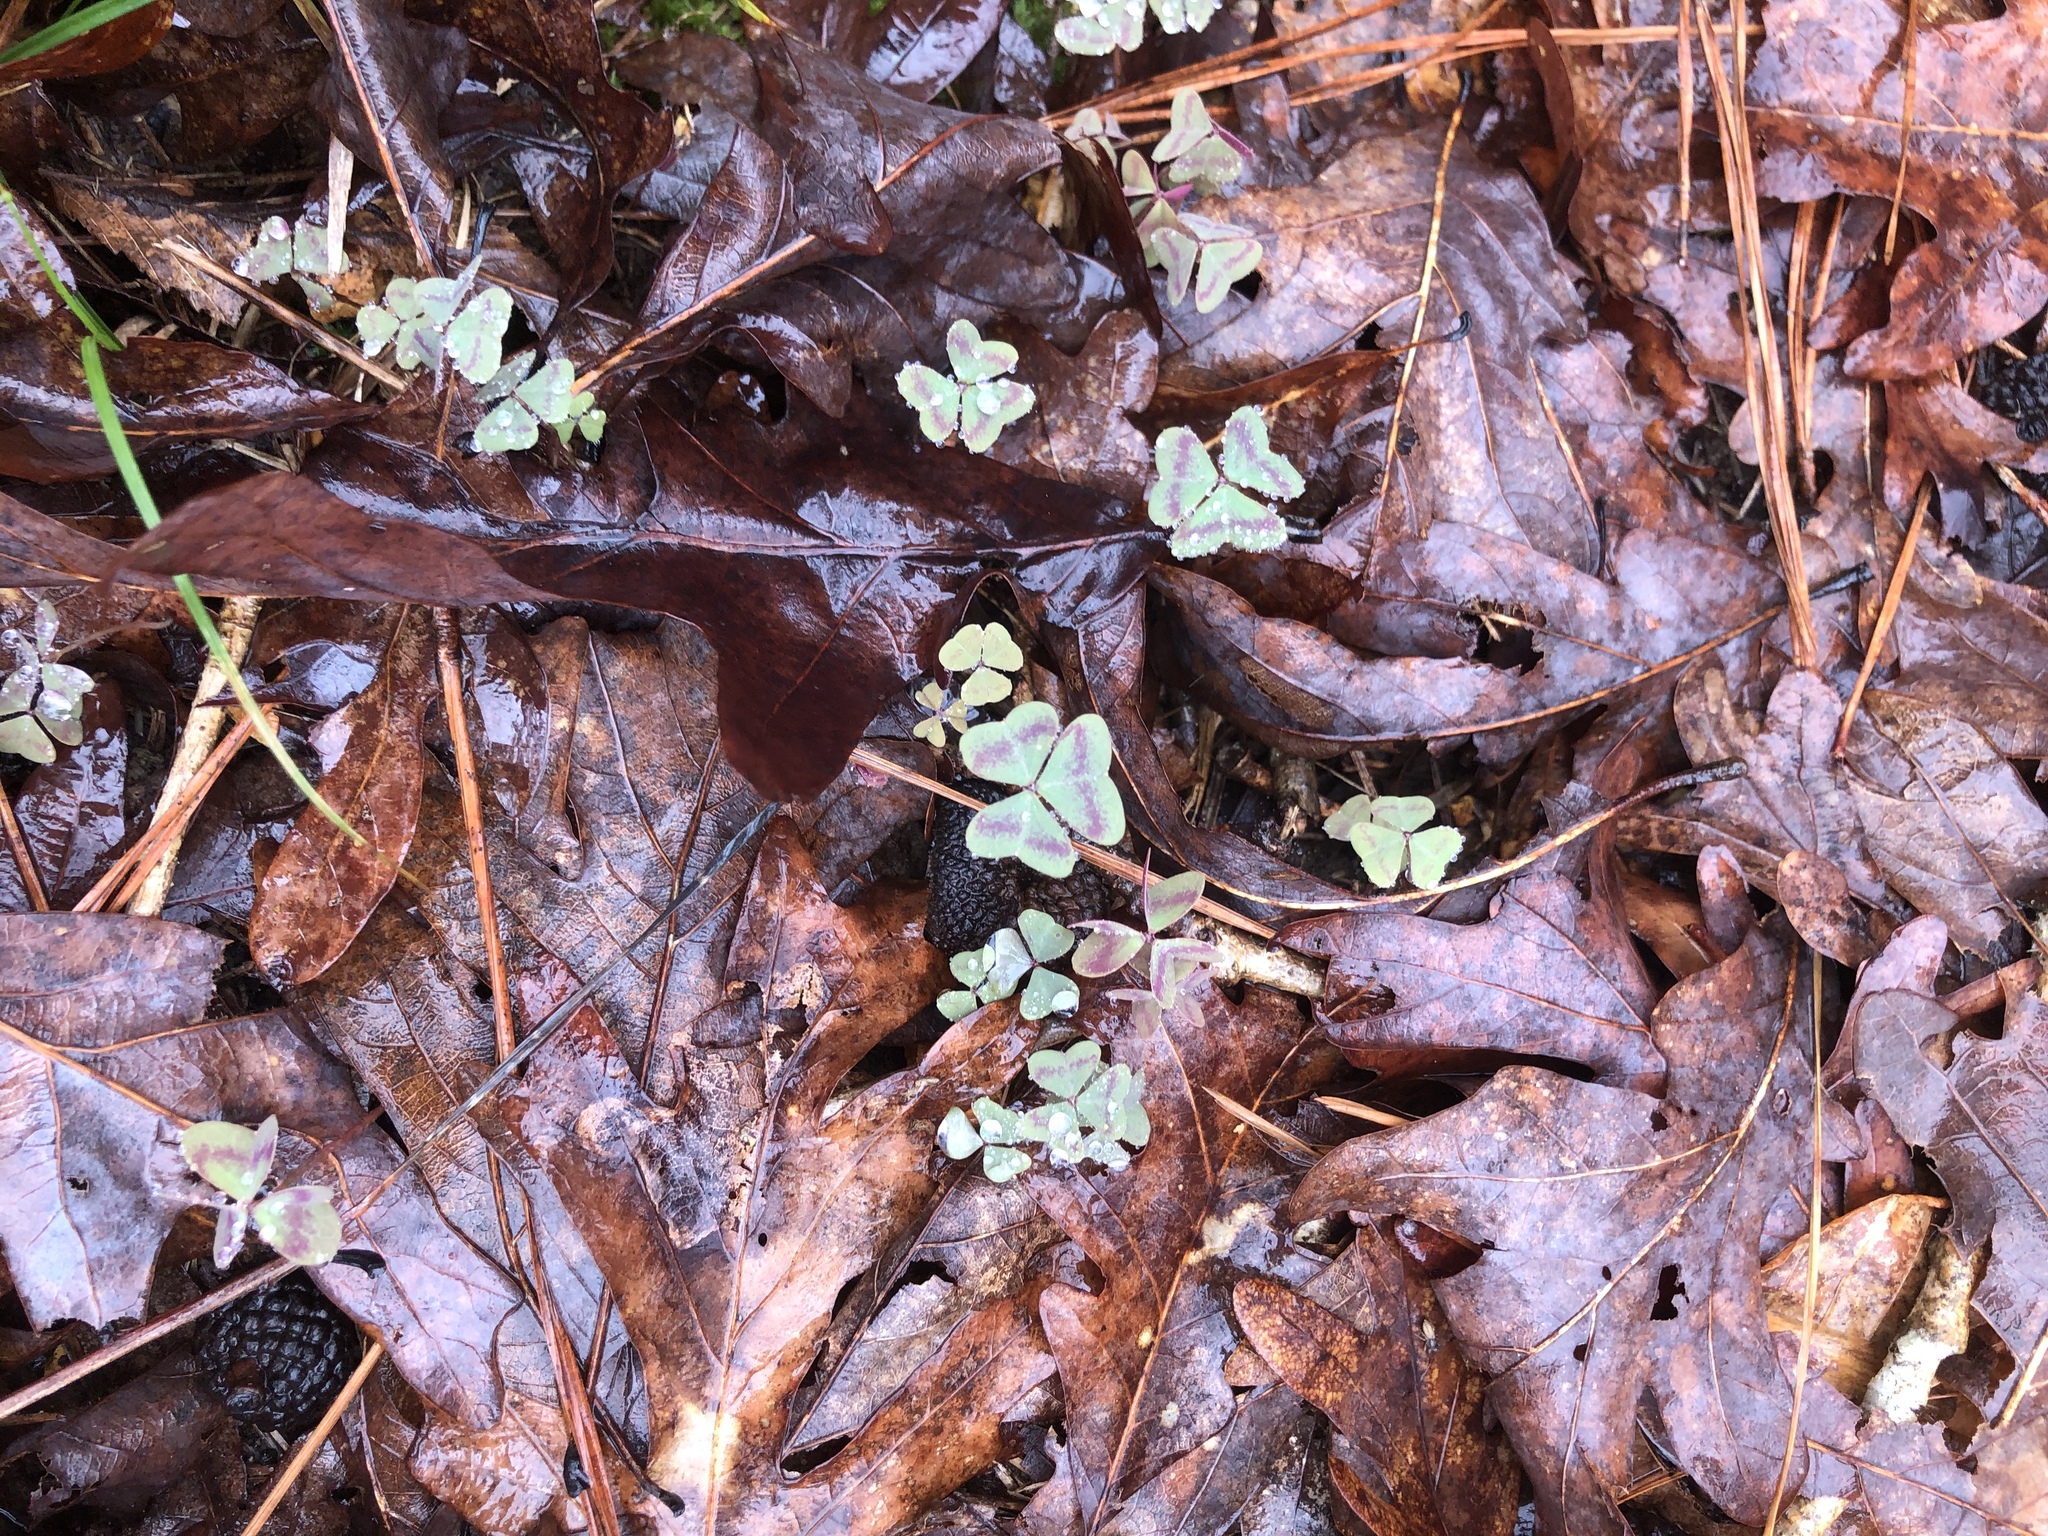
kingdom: Plantae
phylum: Tracheophyta
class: Magnoliopsida
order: Oxalidales
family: Oxalidaceae
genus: Oxalis
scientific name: Oxalis violacea
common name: Violet wood-sorrel
